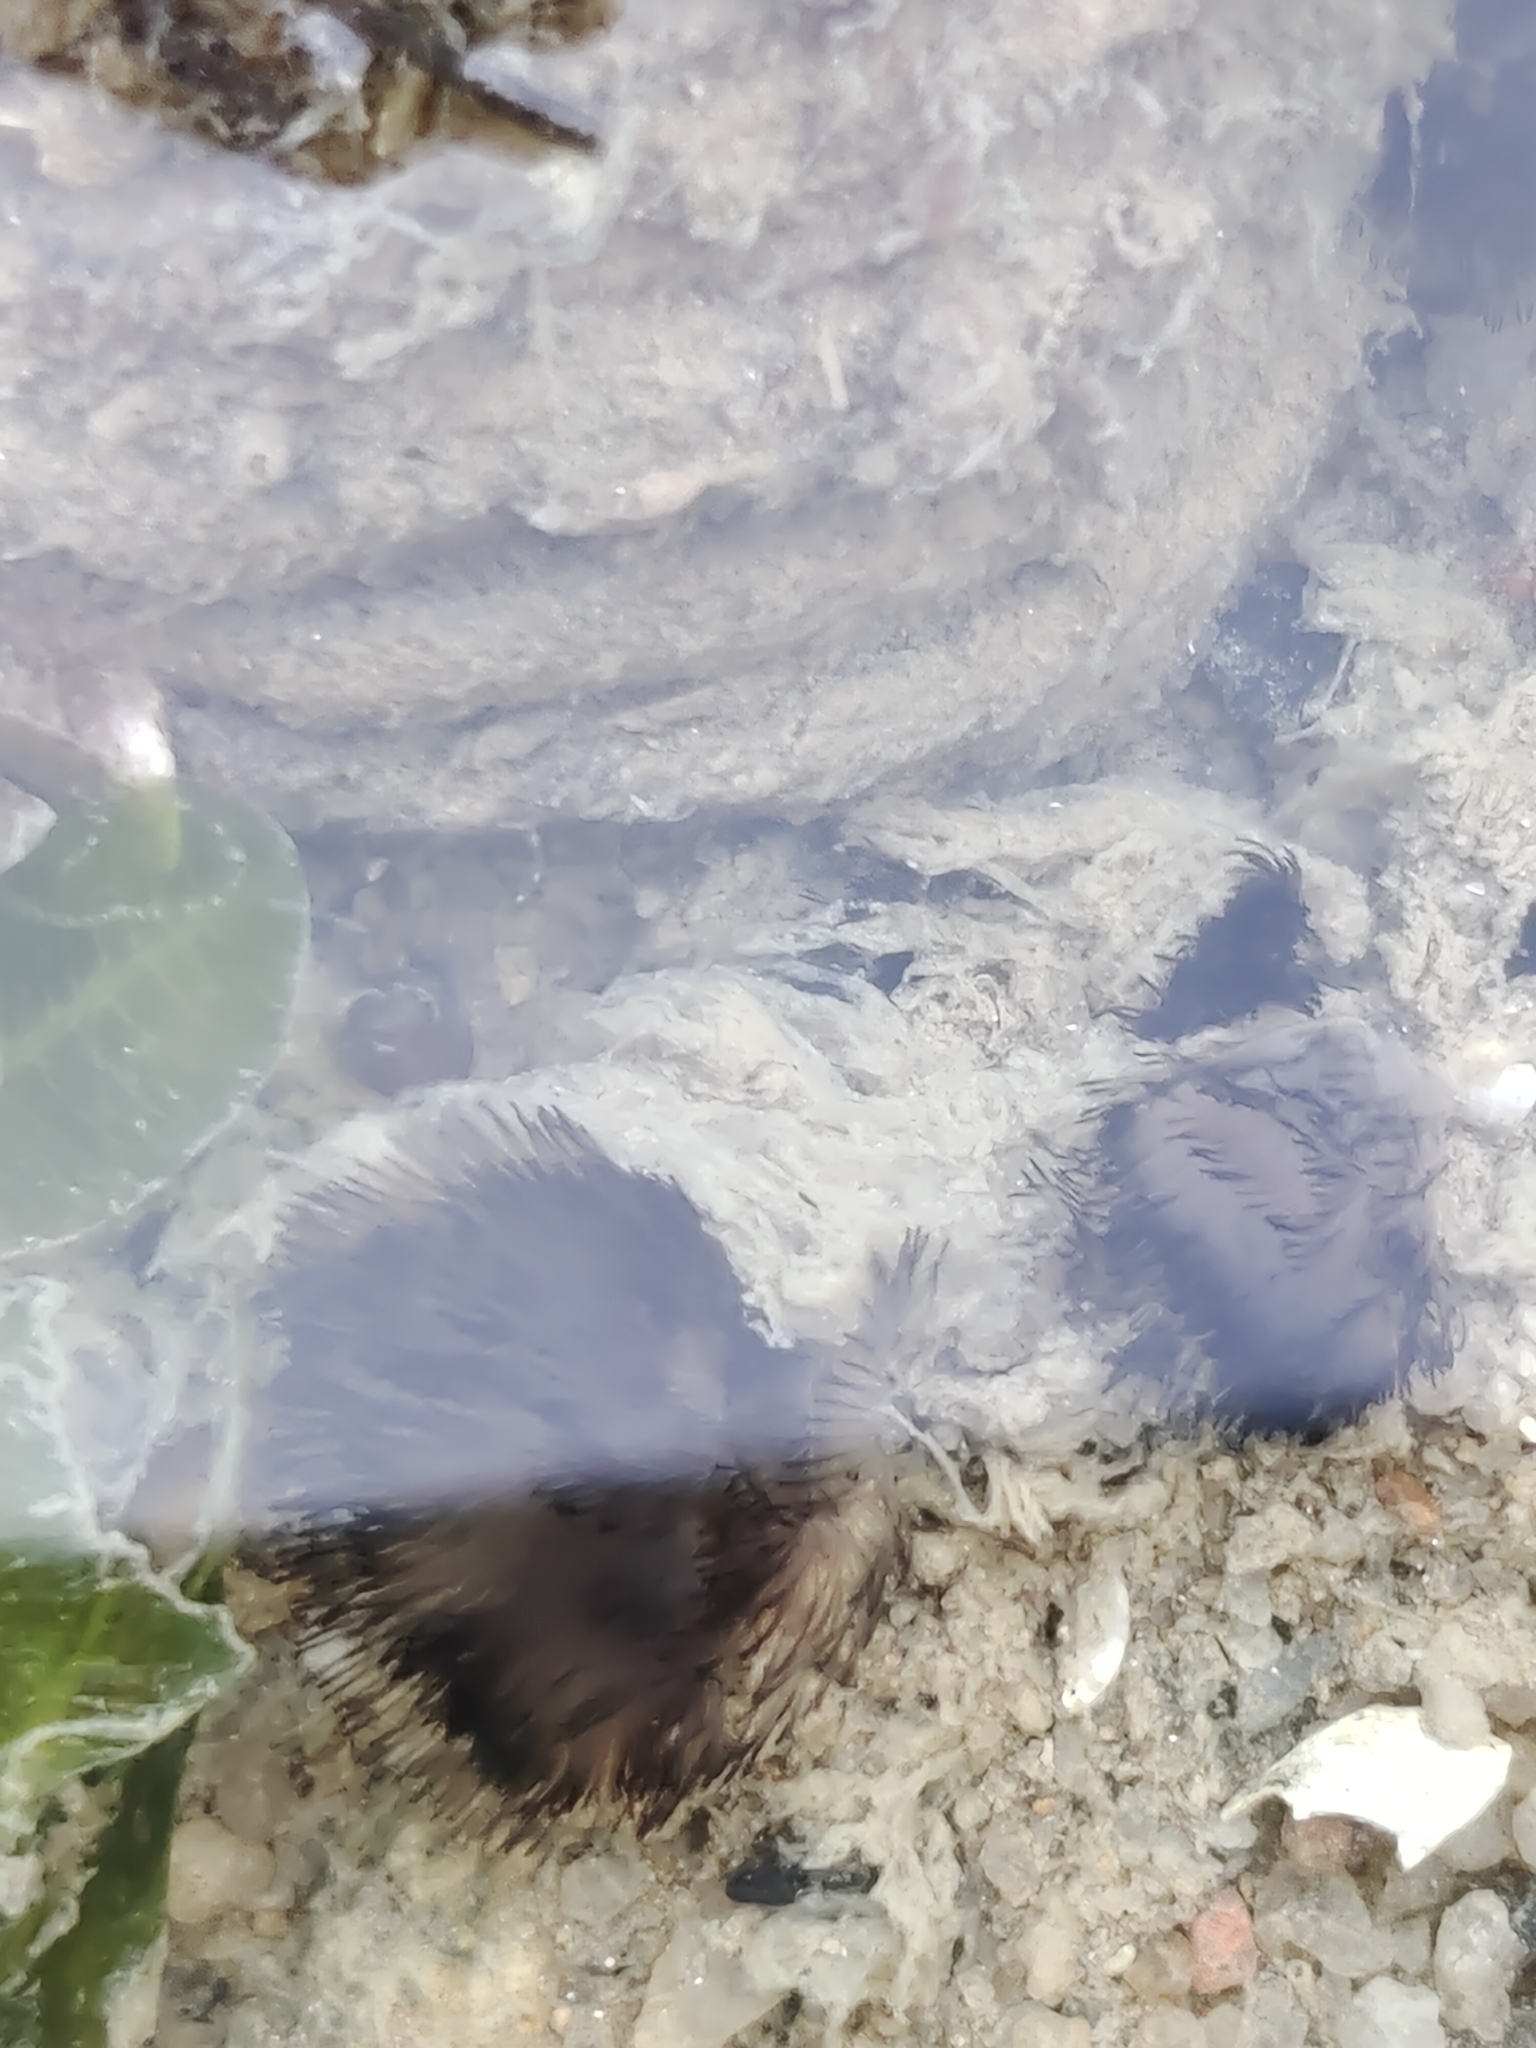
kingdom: Animalia
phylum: Phoronida
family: Phoronidae
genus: Phoronis
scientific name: Phoronis australis
